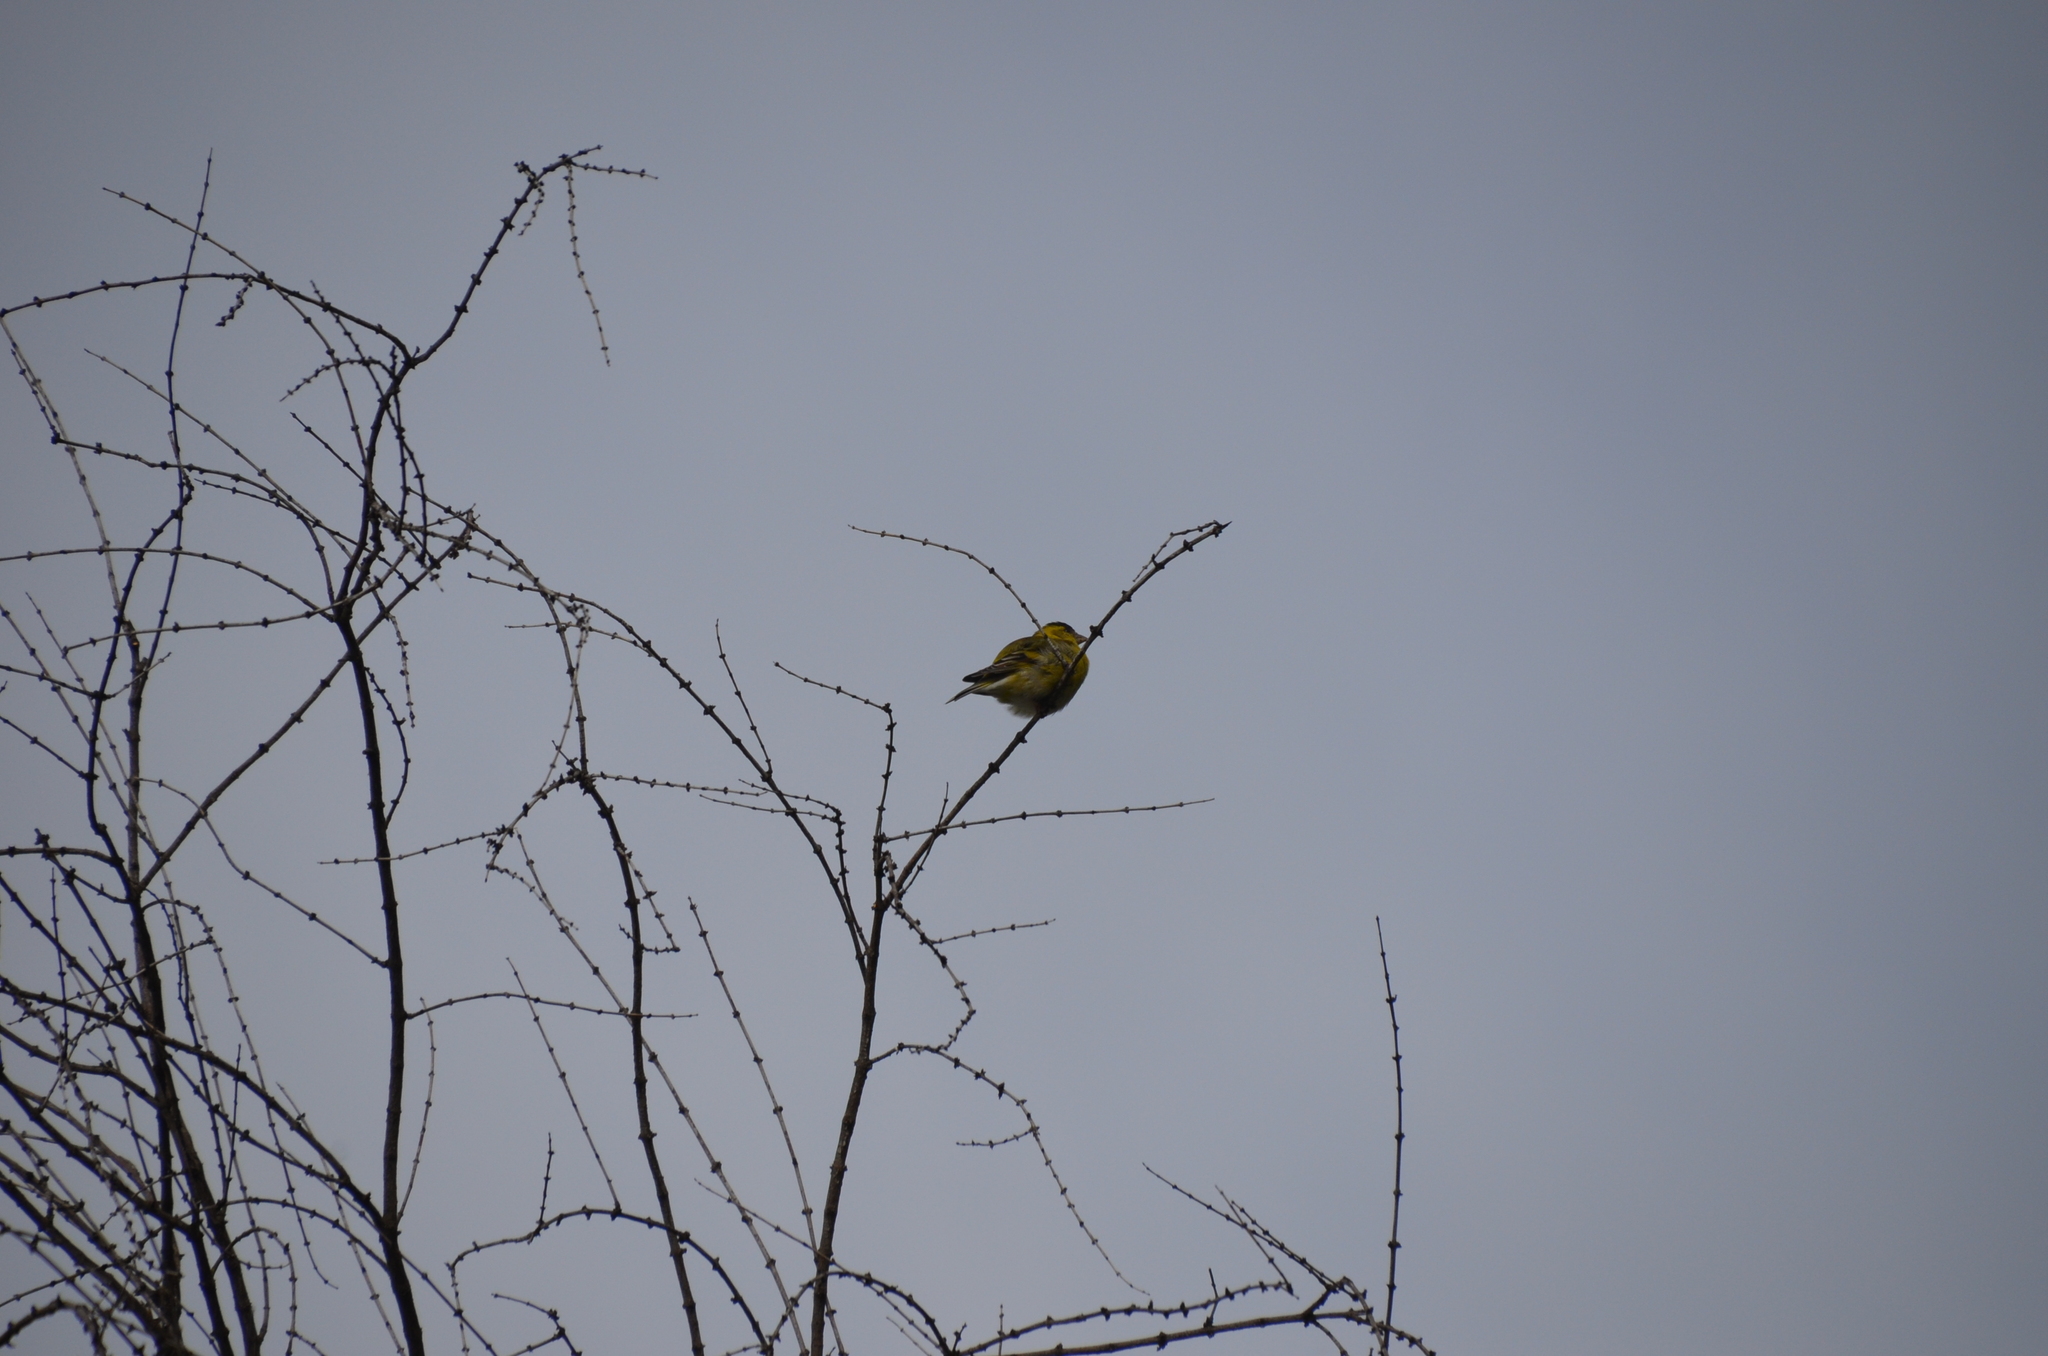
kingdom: Animalia
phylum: Chordata
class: Aves
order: Passeriformes
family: Fringillidae
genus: Spinus
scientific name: Spinus barbatus
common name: Black-chinned siskin
